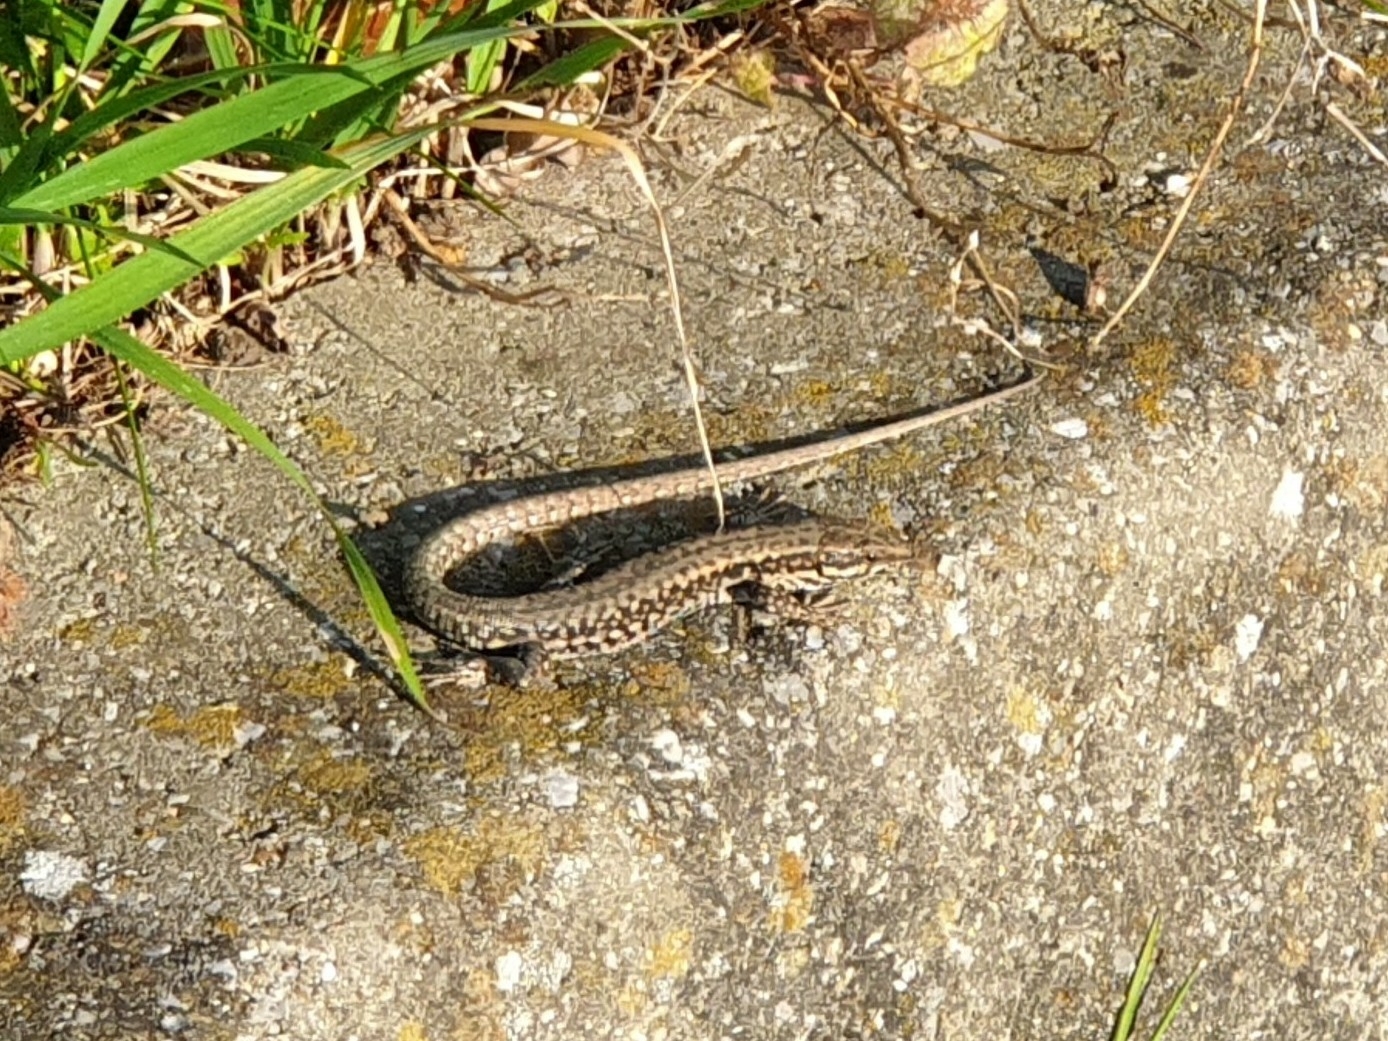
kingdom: Animalia
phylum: Chordata
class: Squamata
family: Lacertidae
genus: Podarcis
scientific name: Podarcis muralis
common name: Common wall lizard
